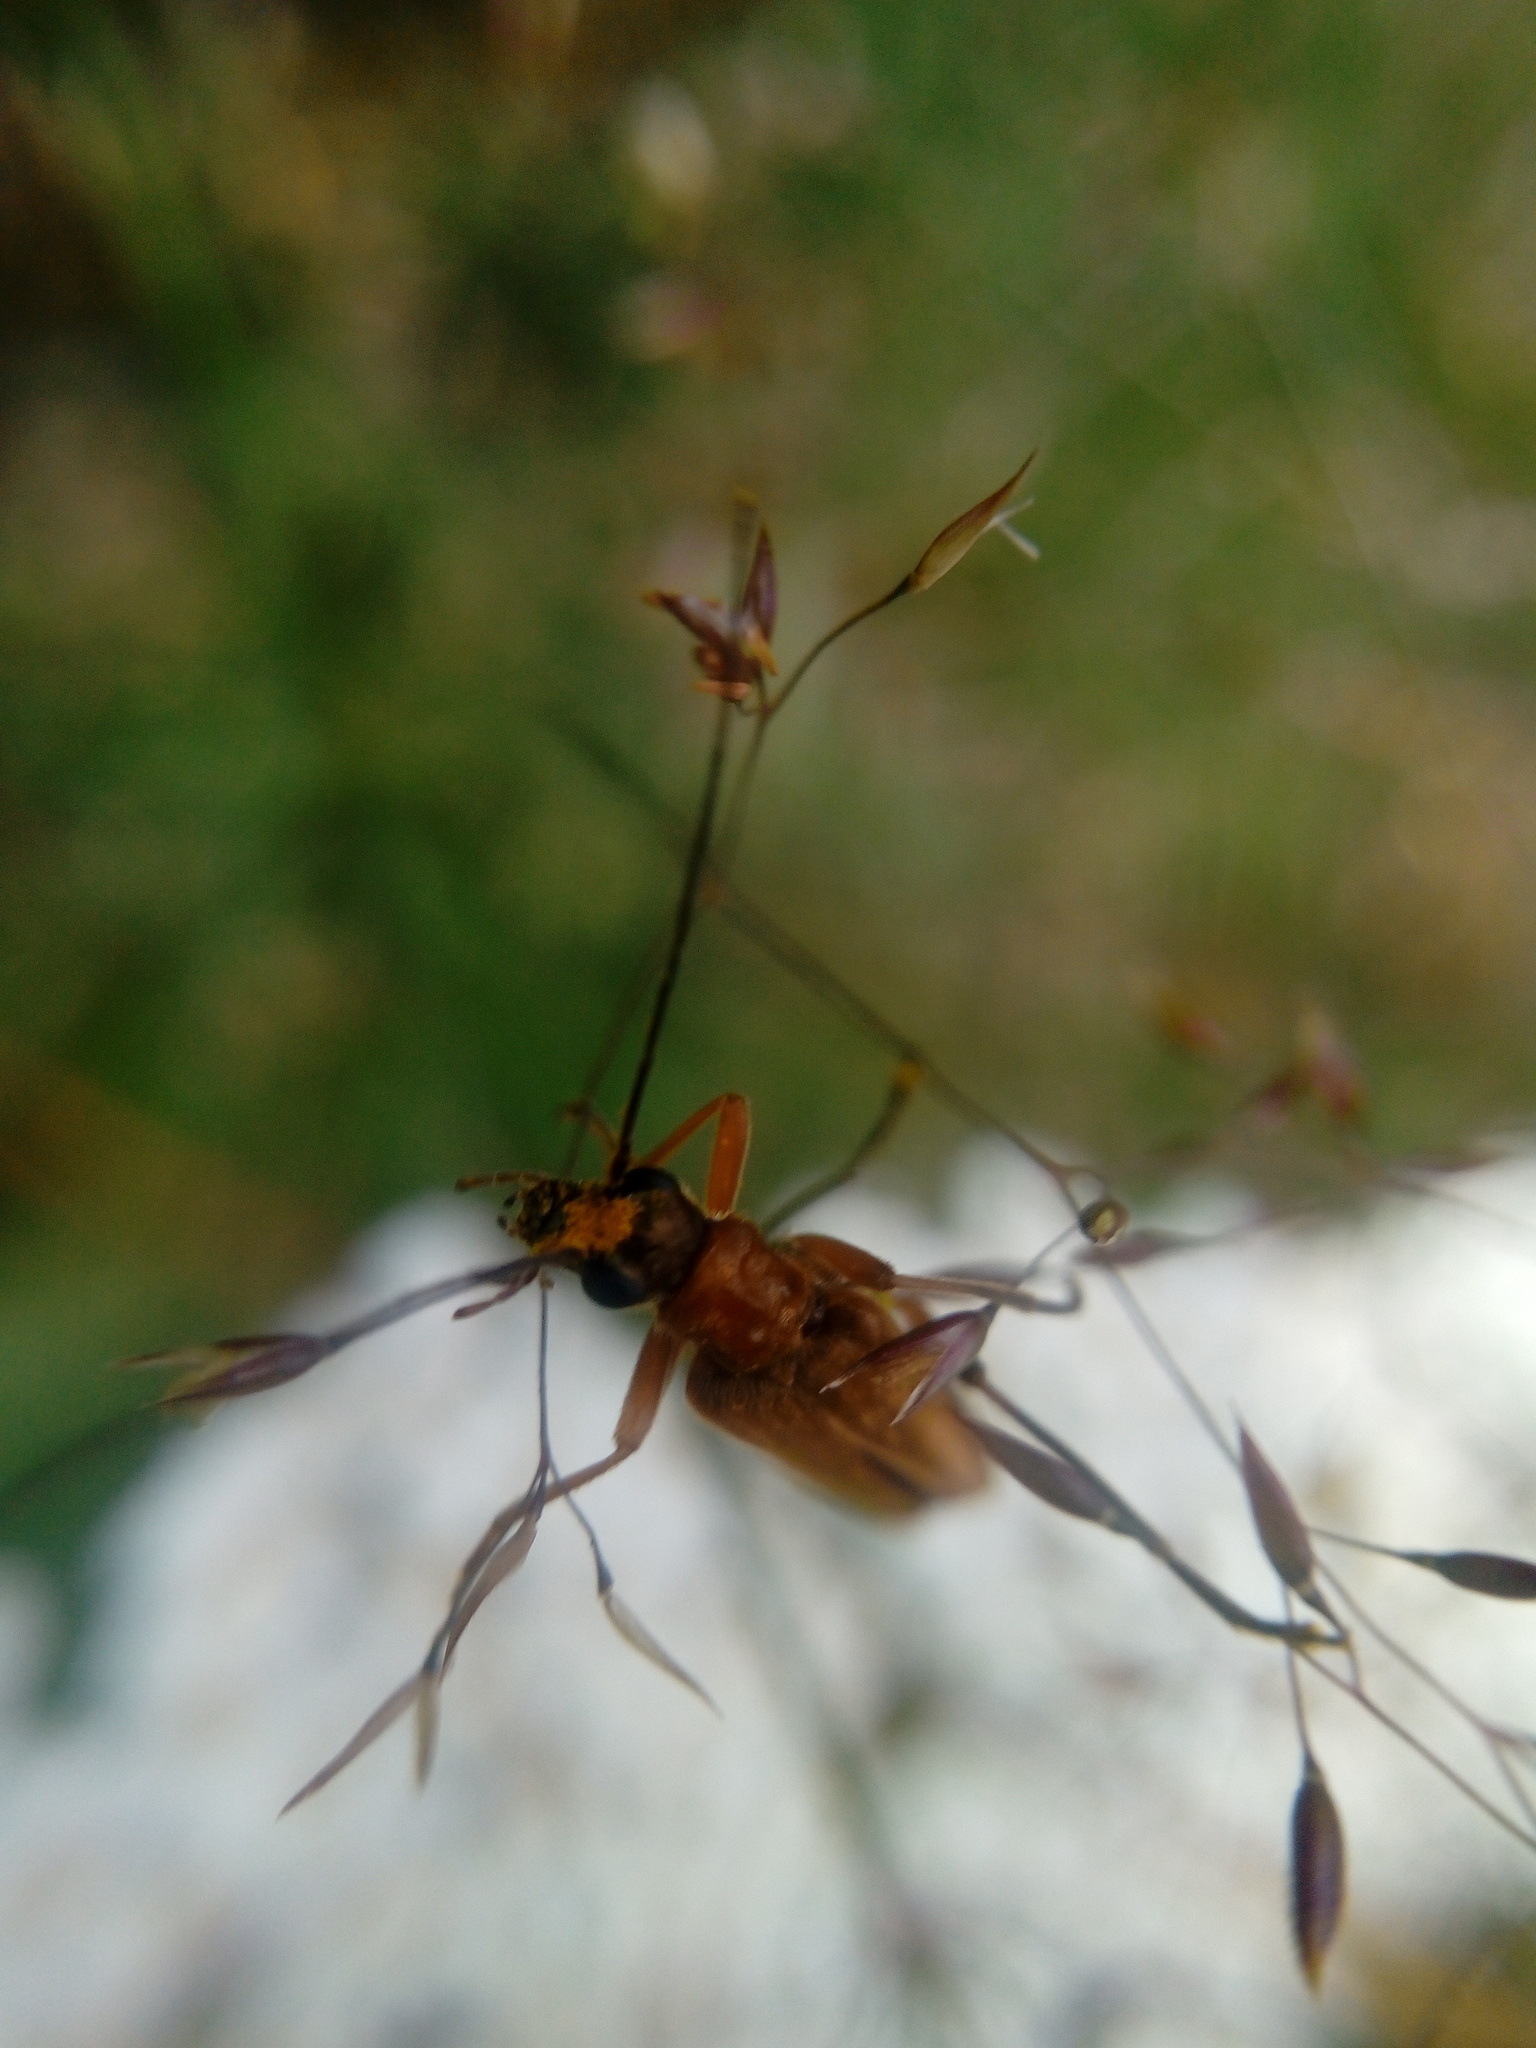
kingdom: Animalia
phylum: Arthropoda
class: Insecta
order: Coleoptera
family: Oedemeridae
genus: Oedemera
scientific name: Oedemera podagrariae
